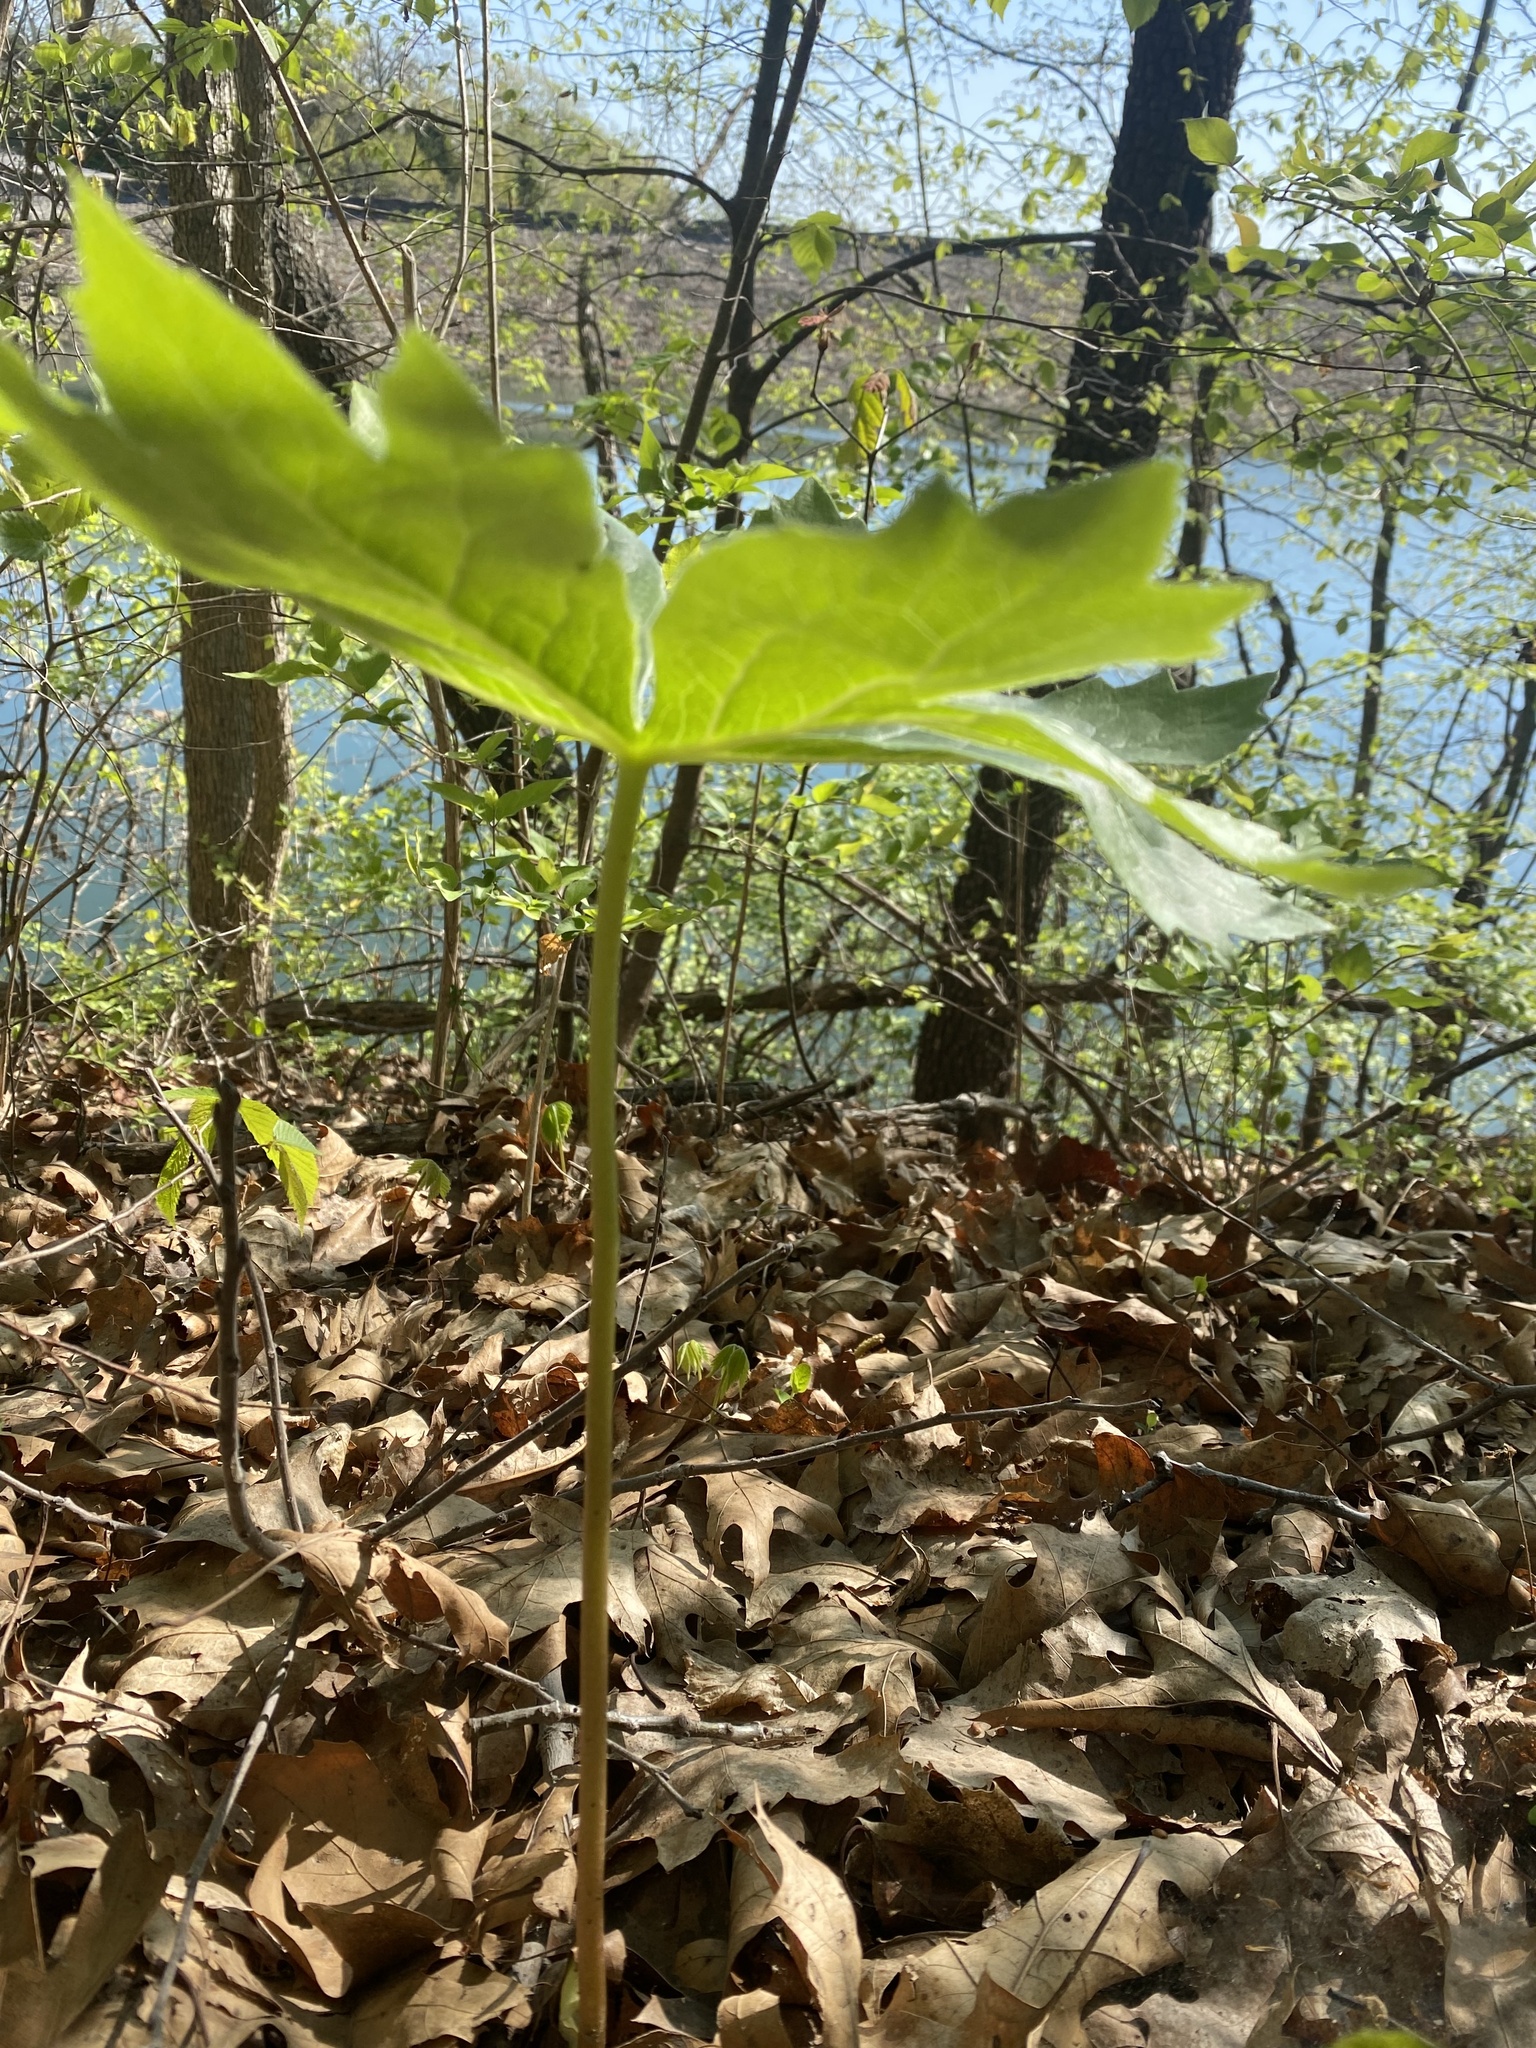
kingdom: Plantae
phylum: Tracheophyta
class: Magnoliopsida
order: Ranunculales
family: Berberidaceae
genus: Podophyllum
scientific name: Podophyllum peltatum
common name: Wild mandrake
